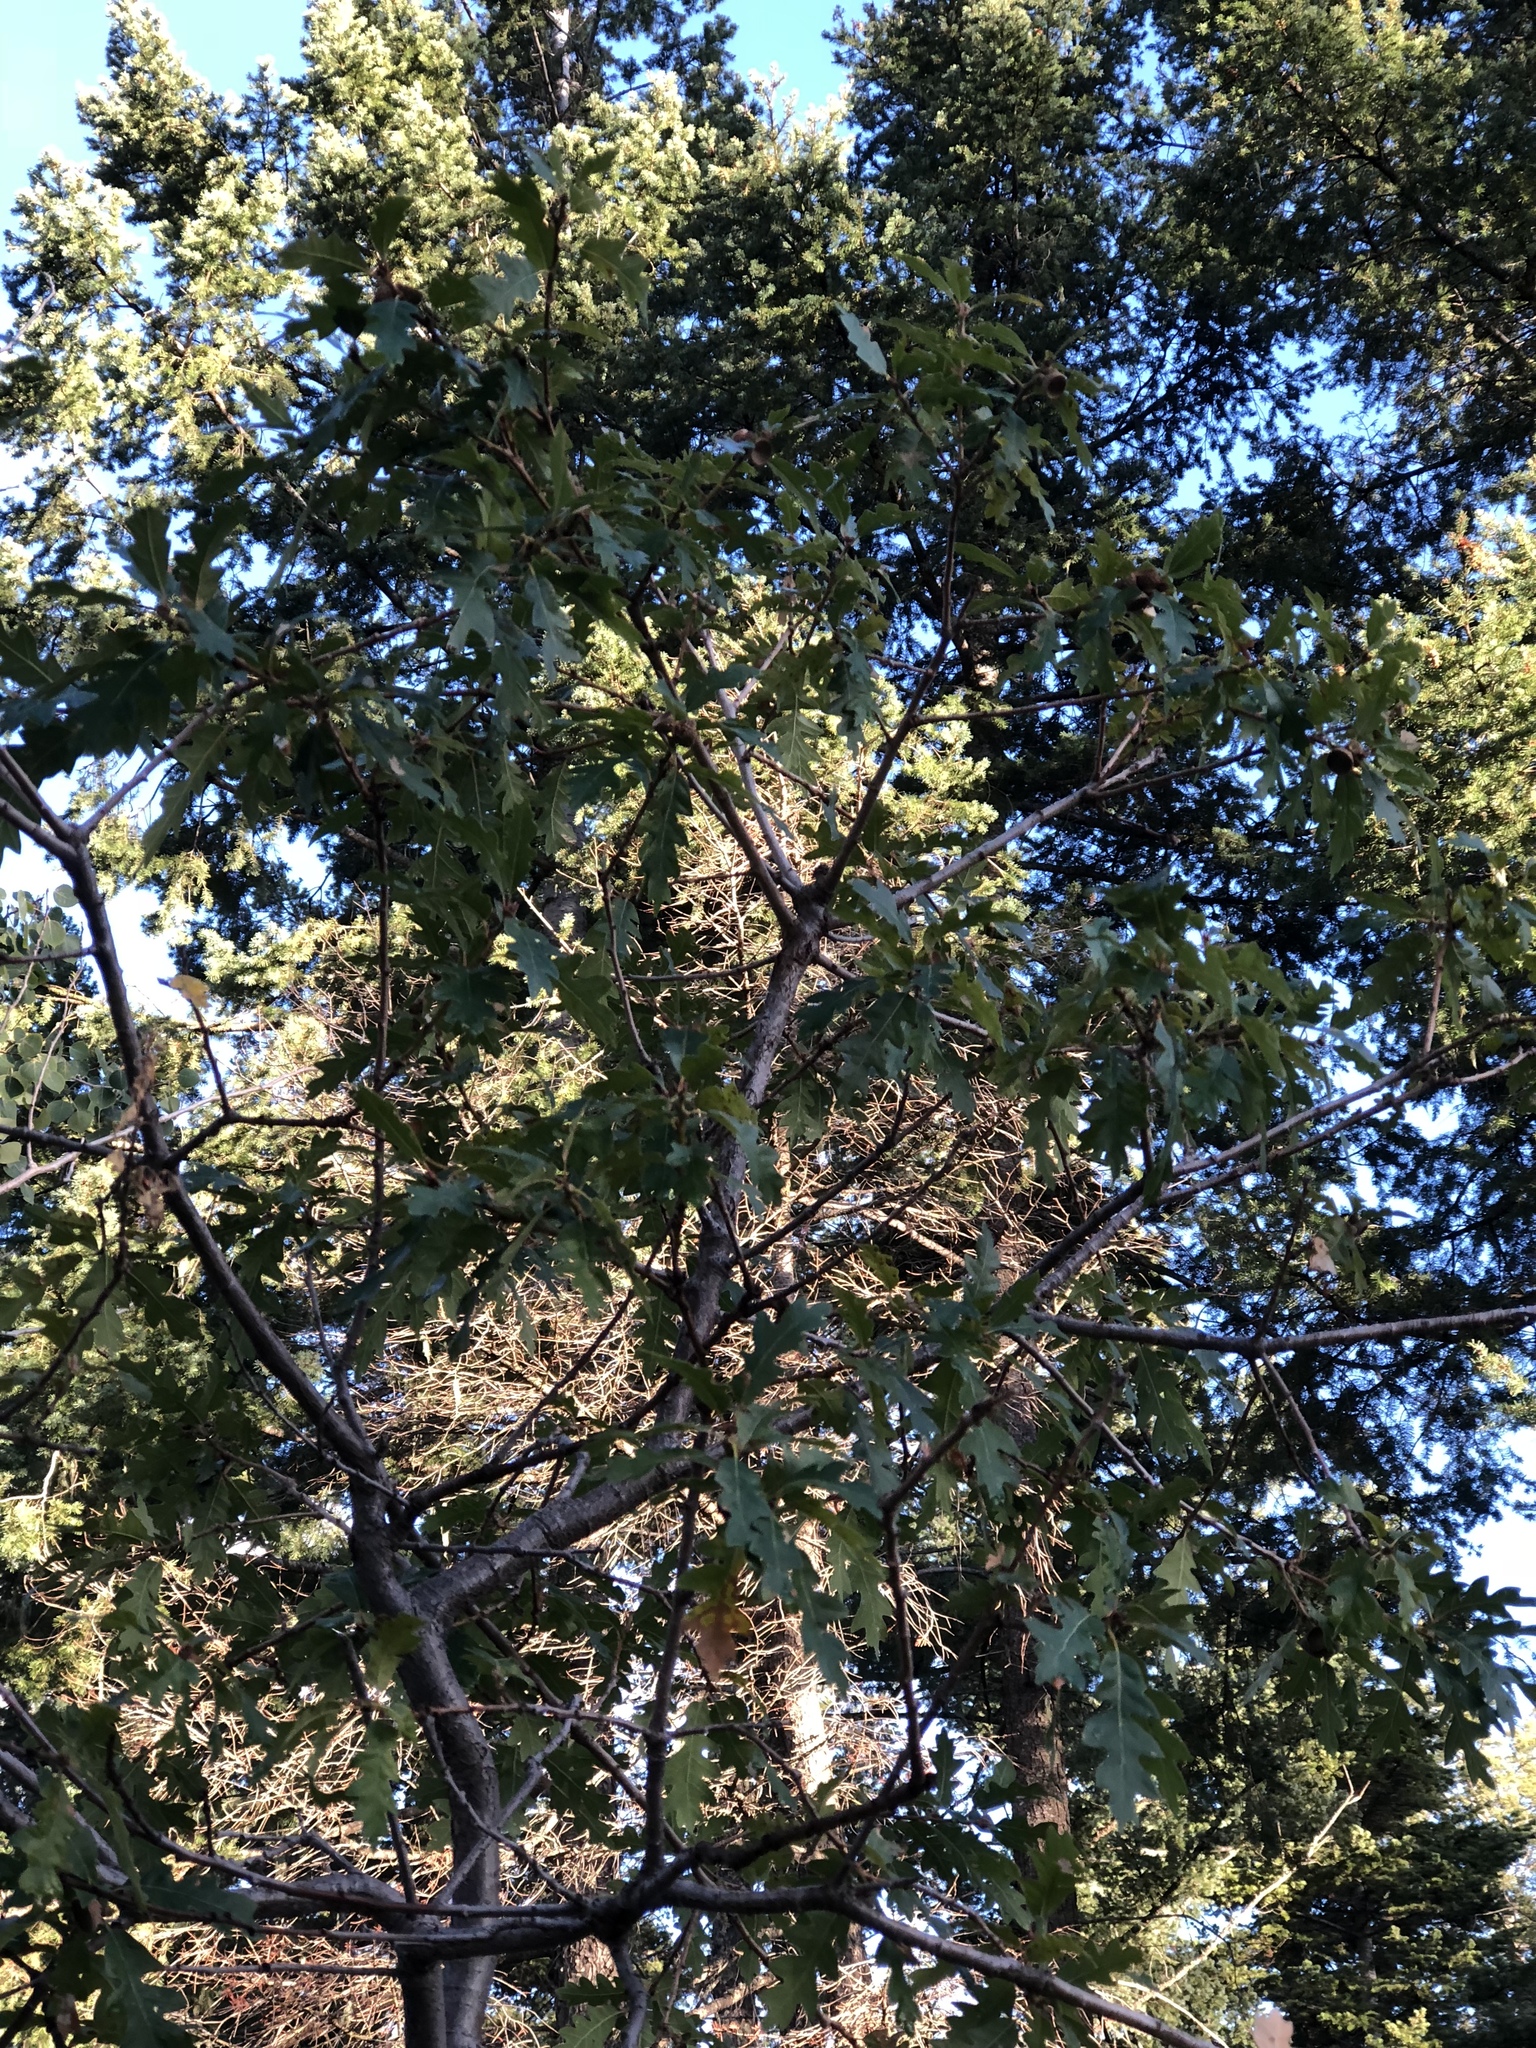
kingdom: Plantae
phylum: Tracheophyta
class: Magnoliopsida
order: Fagales
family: Fagaceae
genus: Quercus
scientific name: Quercus gambelii
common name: Gambel oak
